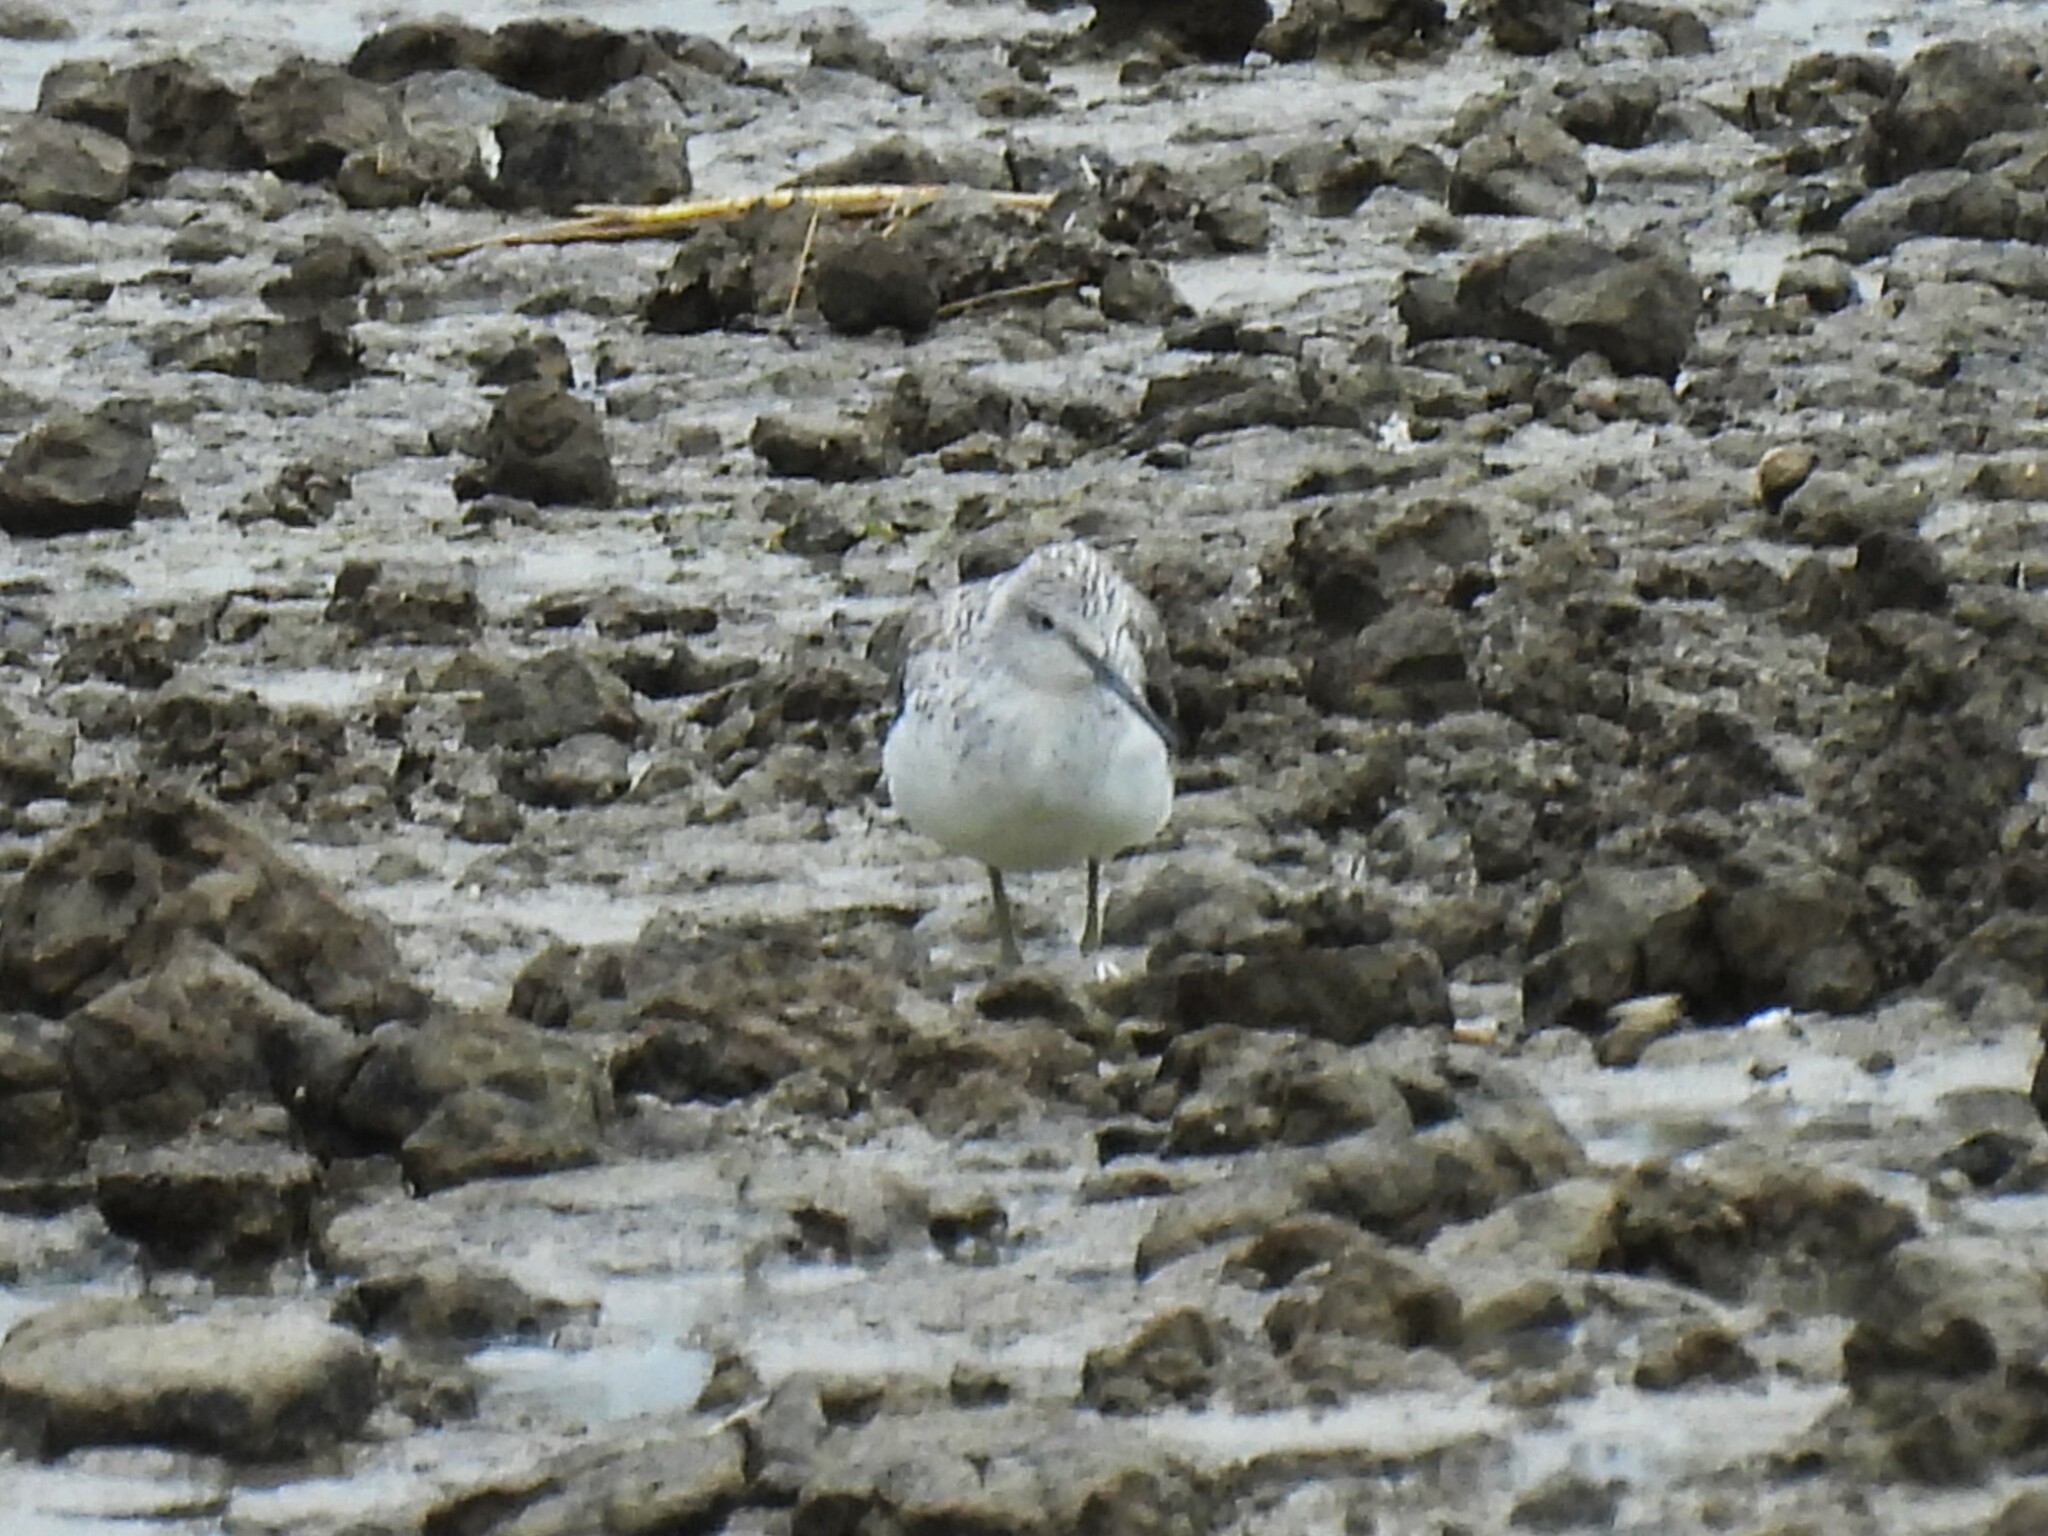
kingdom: Animalia
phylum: Chordata
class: Aves
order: Charadriiformes
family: Scolopacidae
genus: Tringa
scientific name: Tringa nebularia
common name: Common greenshank
